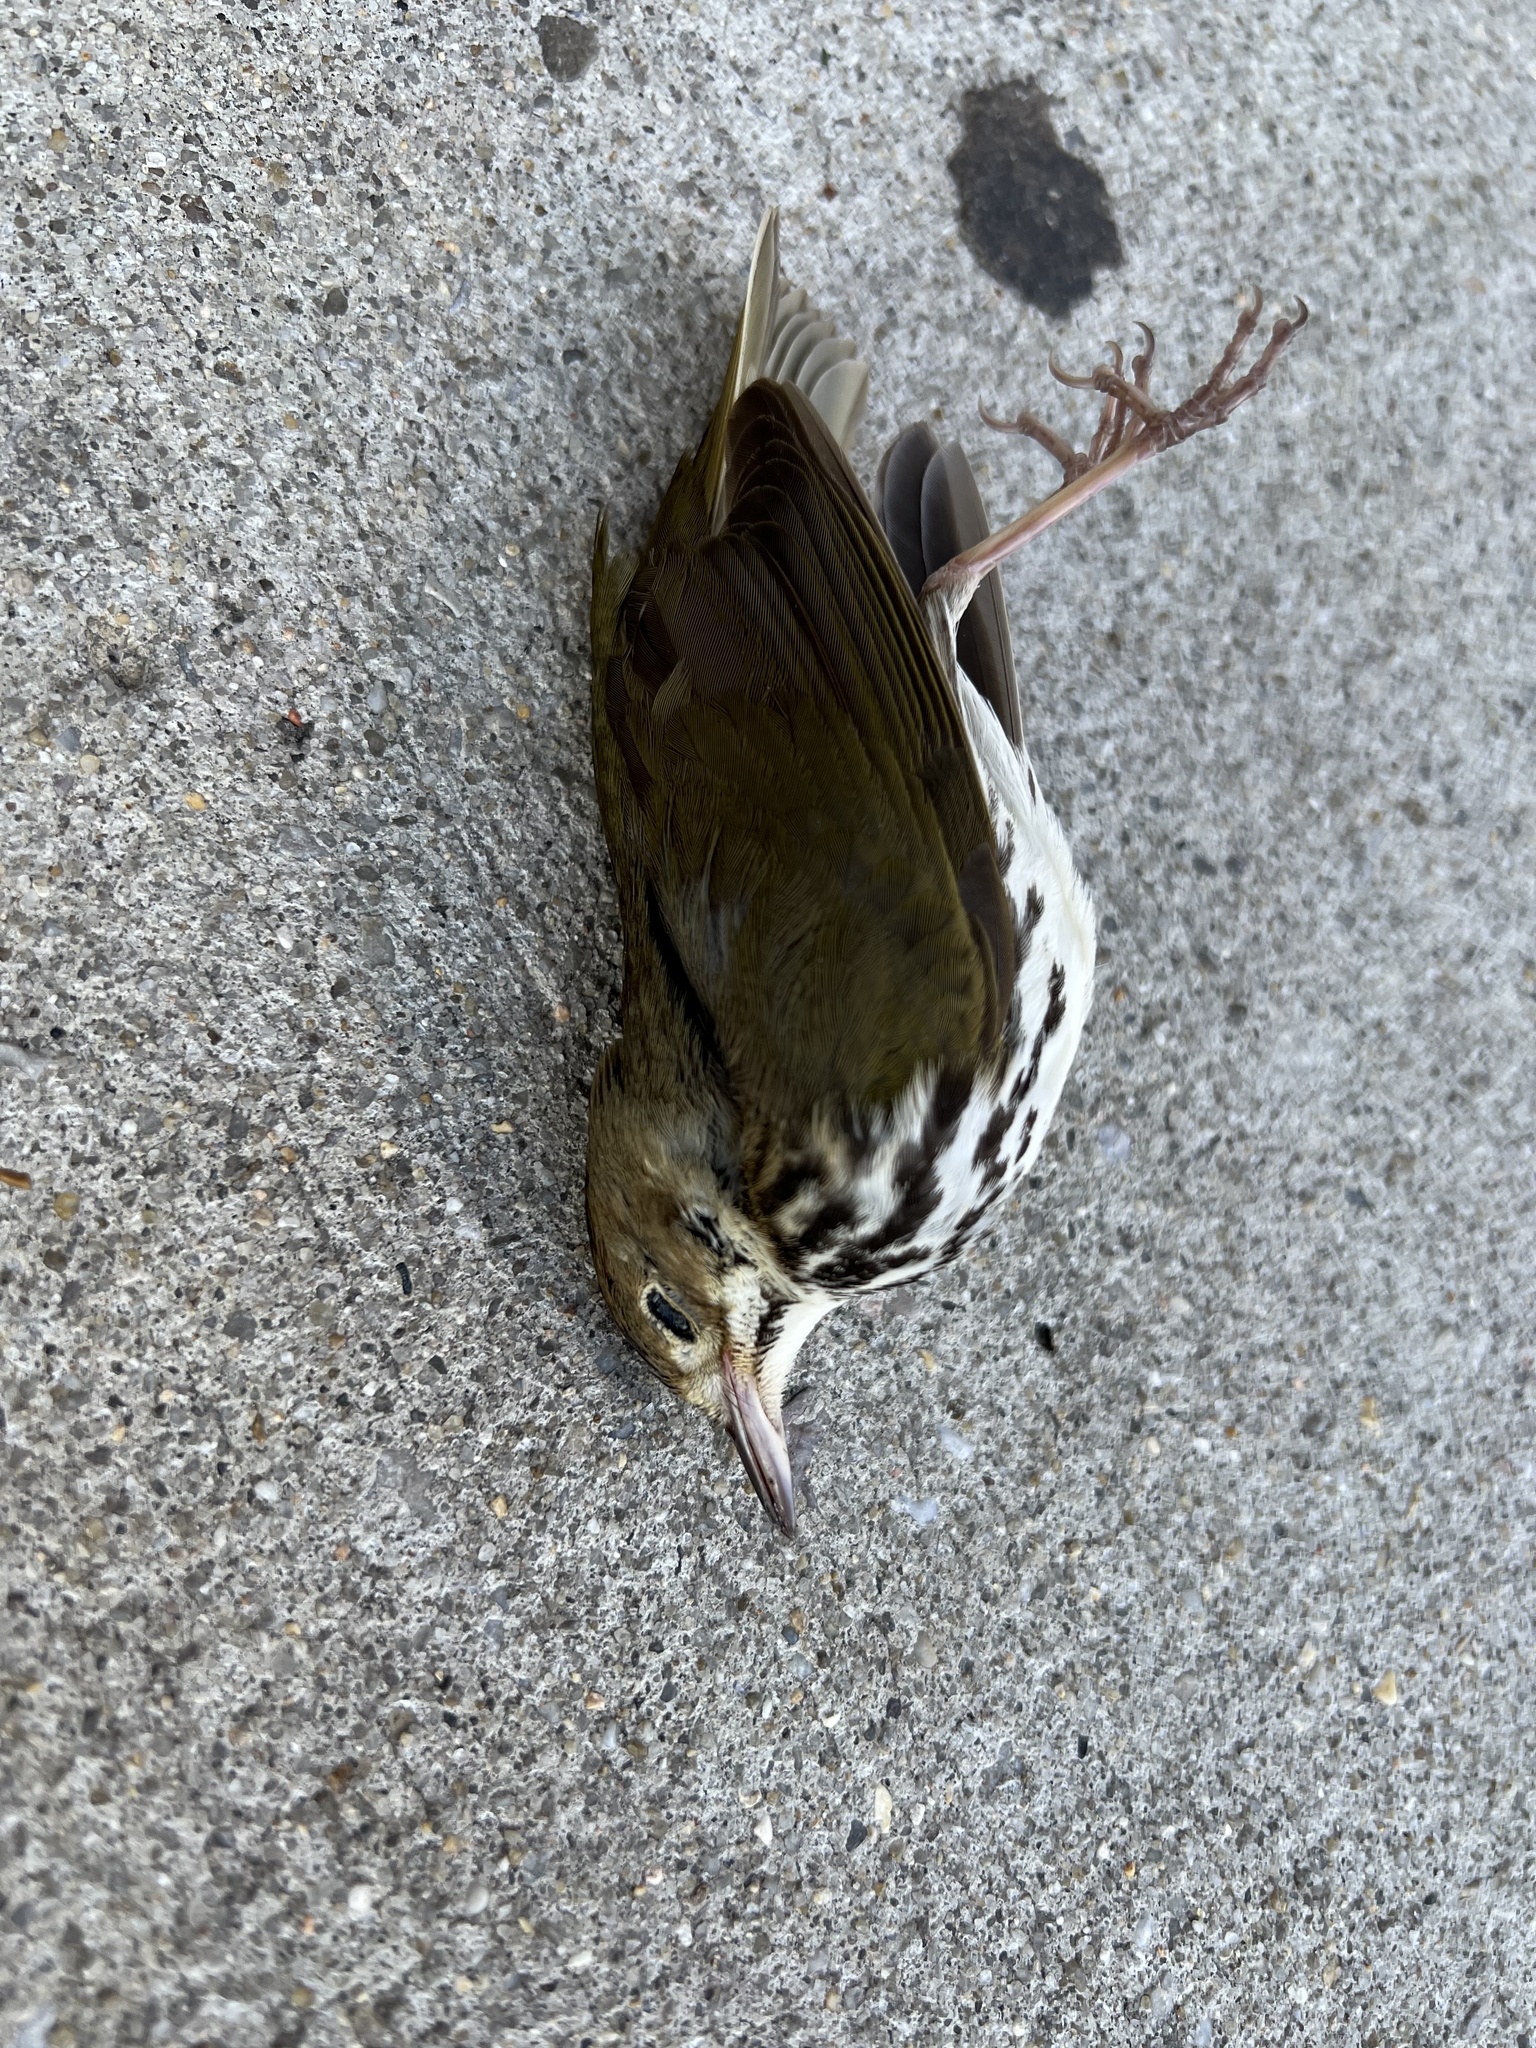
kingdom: Animalia
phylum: Chordata
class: Aves
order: Passeriformes
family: Parulidae
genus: Seiurus
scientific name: Seiurus aurocapilla
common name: Ovenbird
